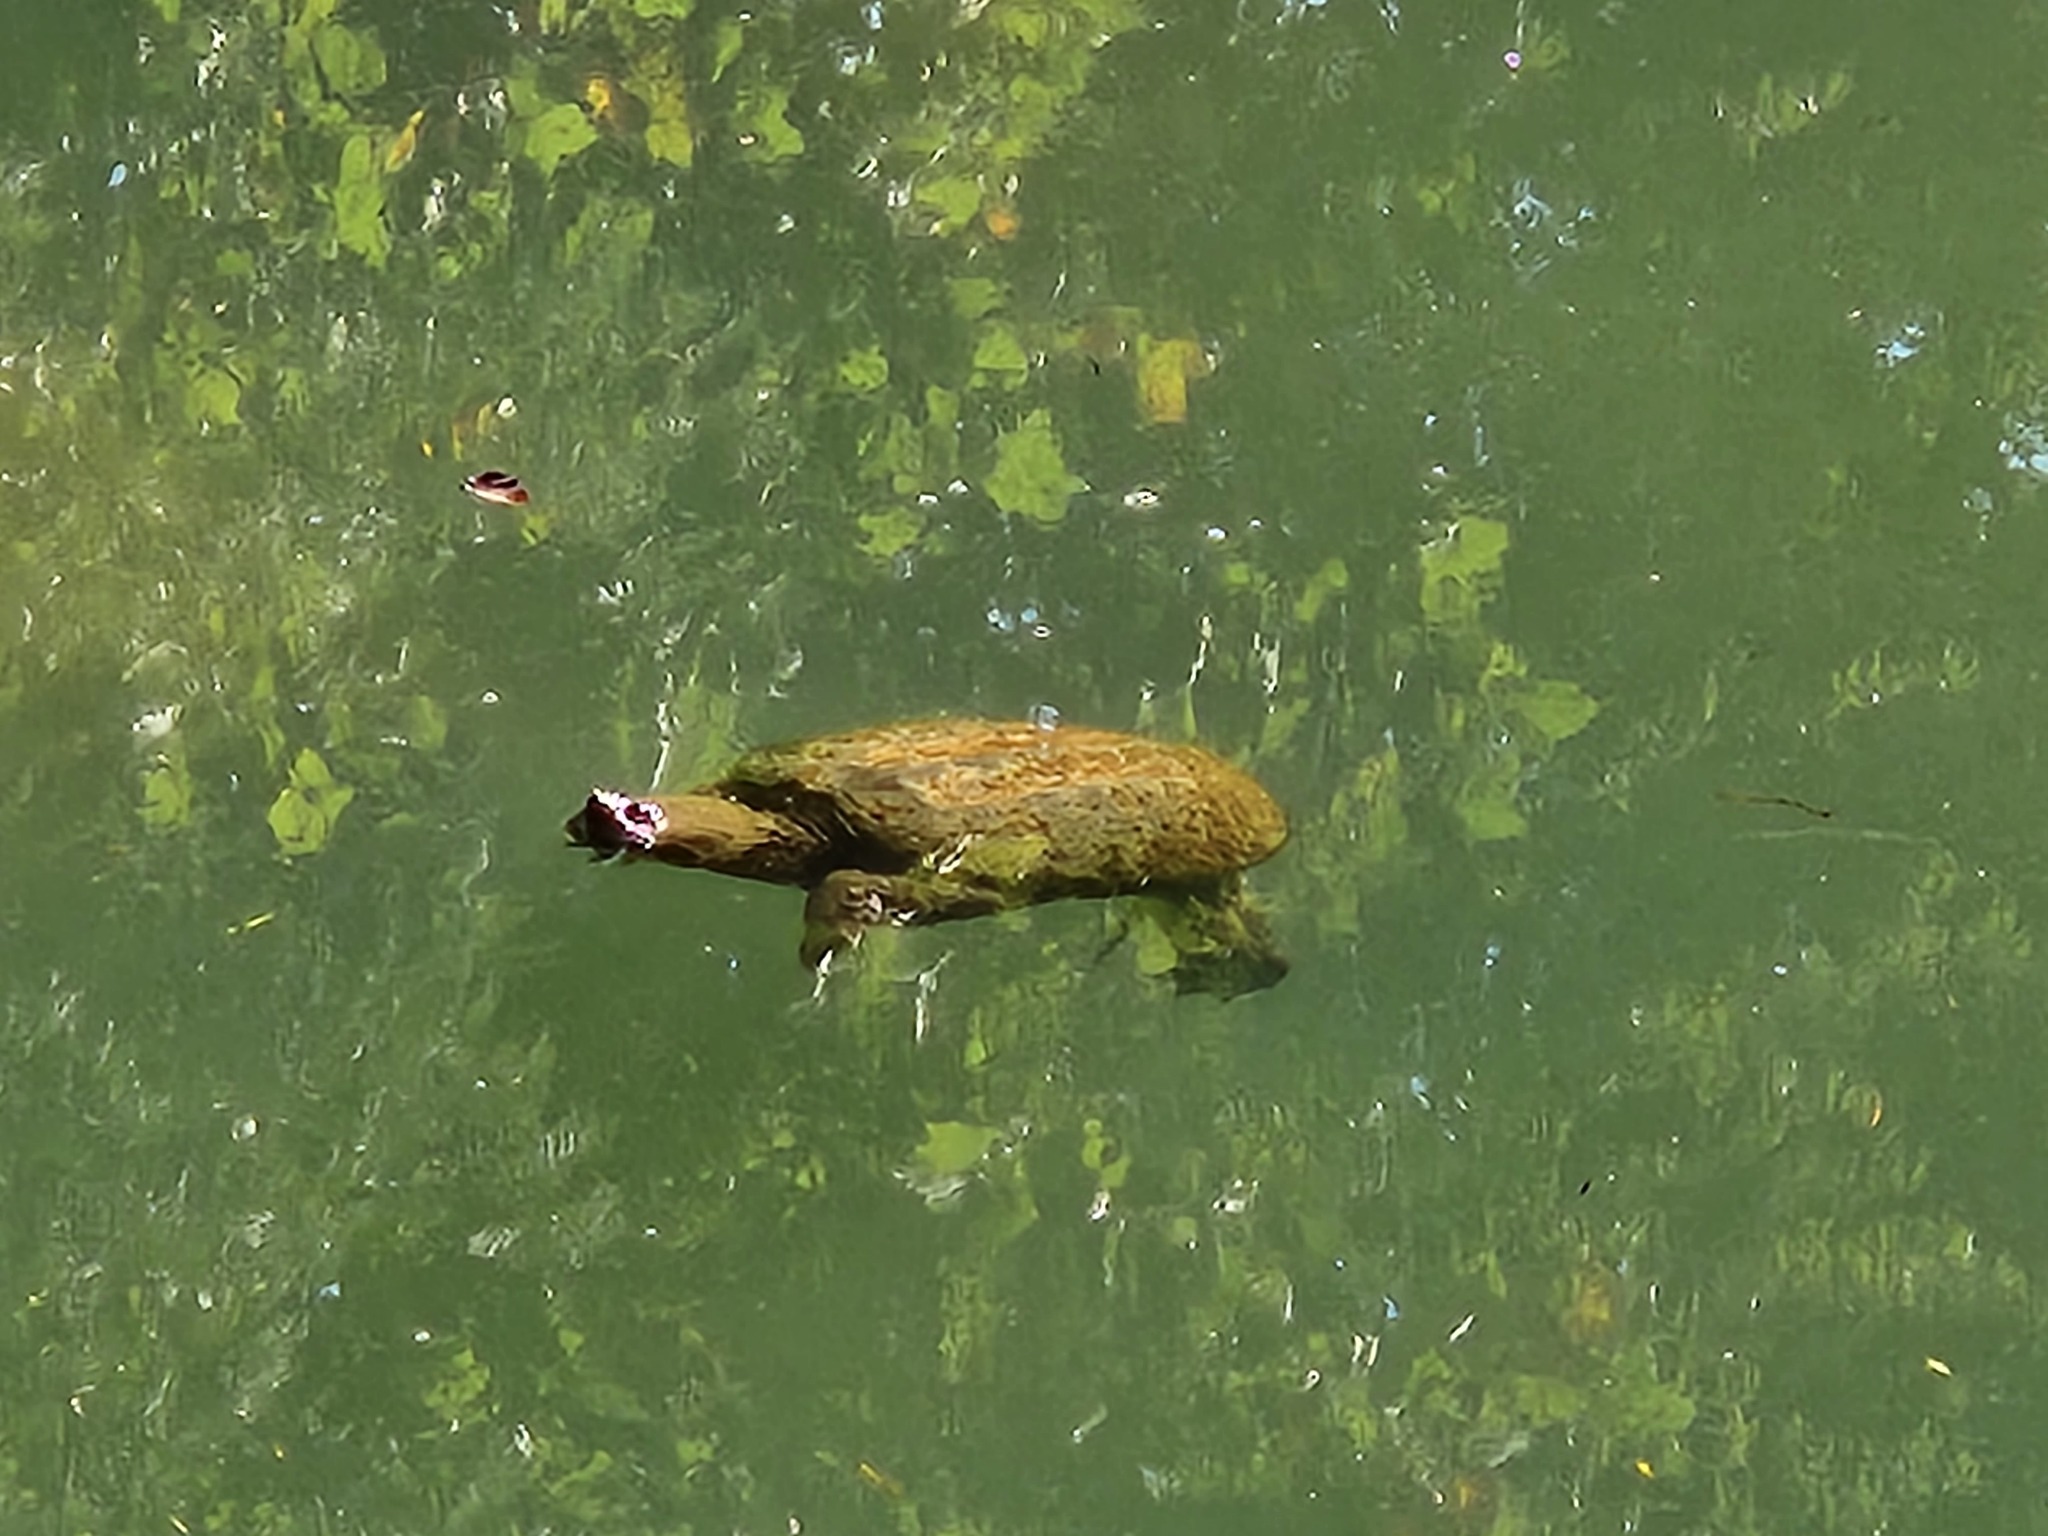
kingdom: Animalia
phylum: Chordata
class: Testudines
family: Chelydridae
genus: Chelydra
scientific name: Chelydra serpentina
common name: Common snapping turtle
